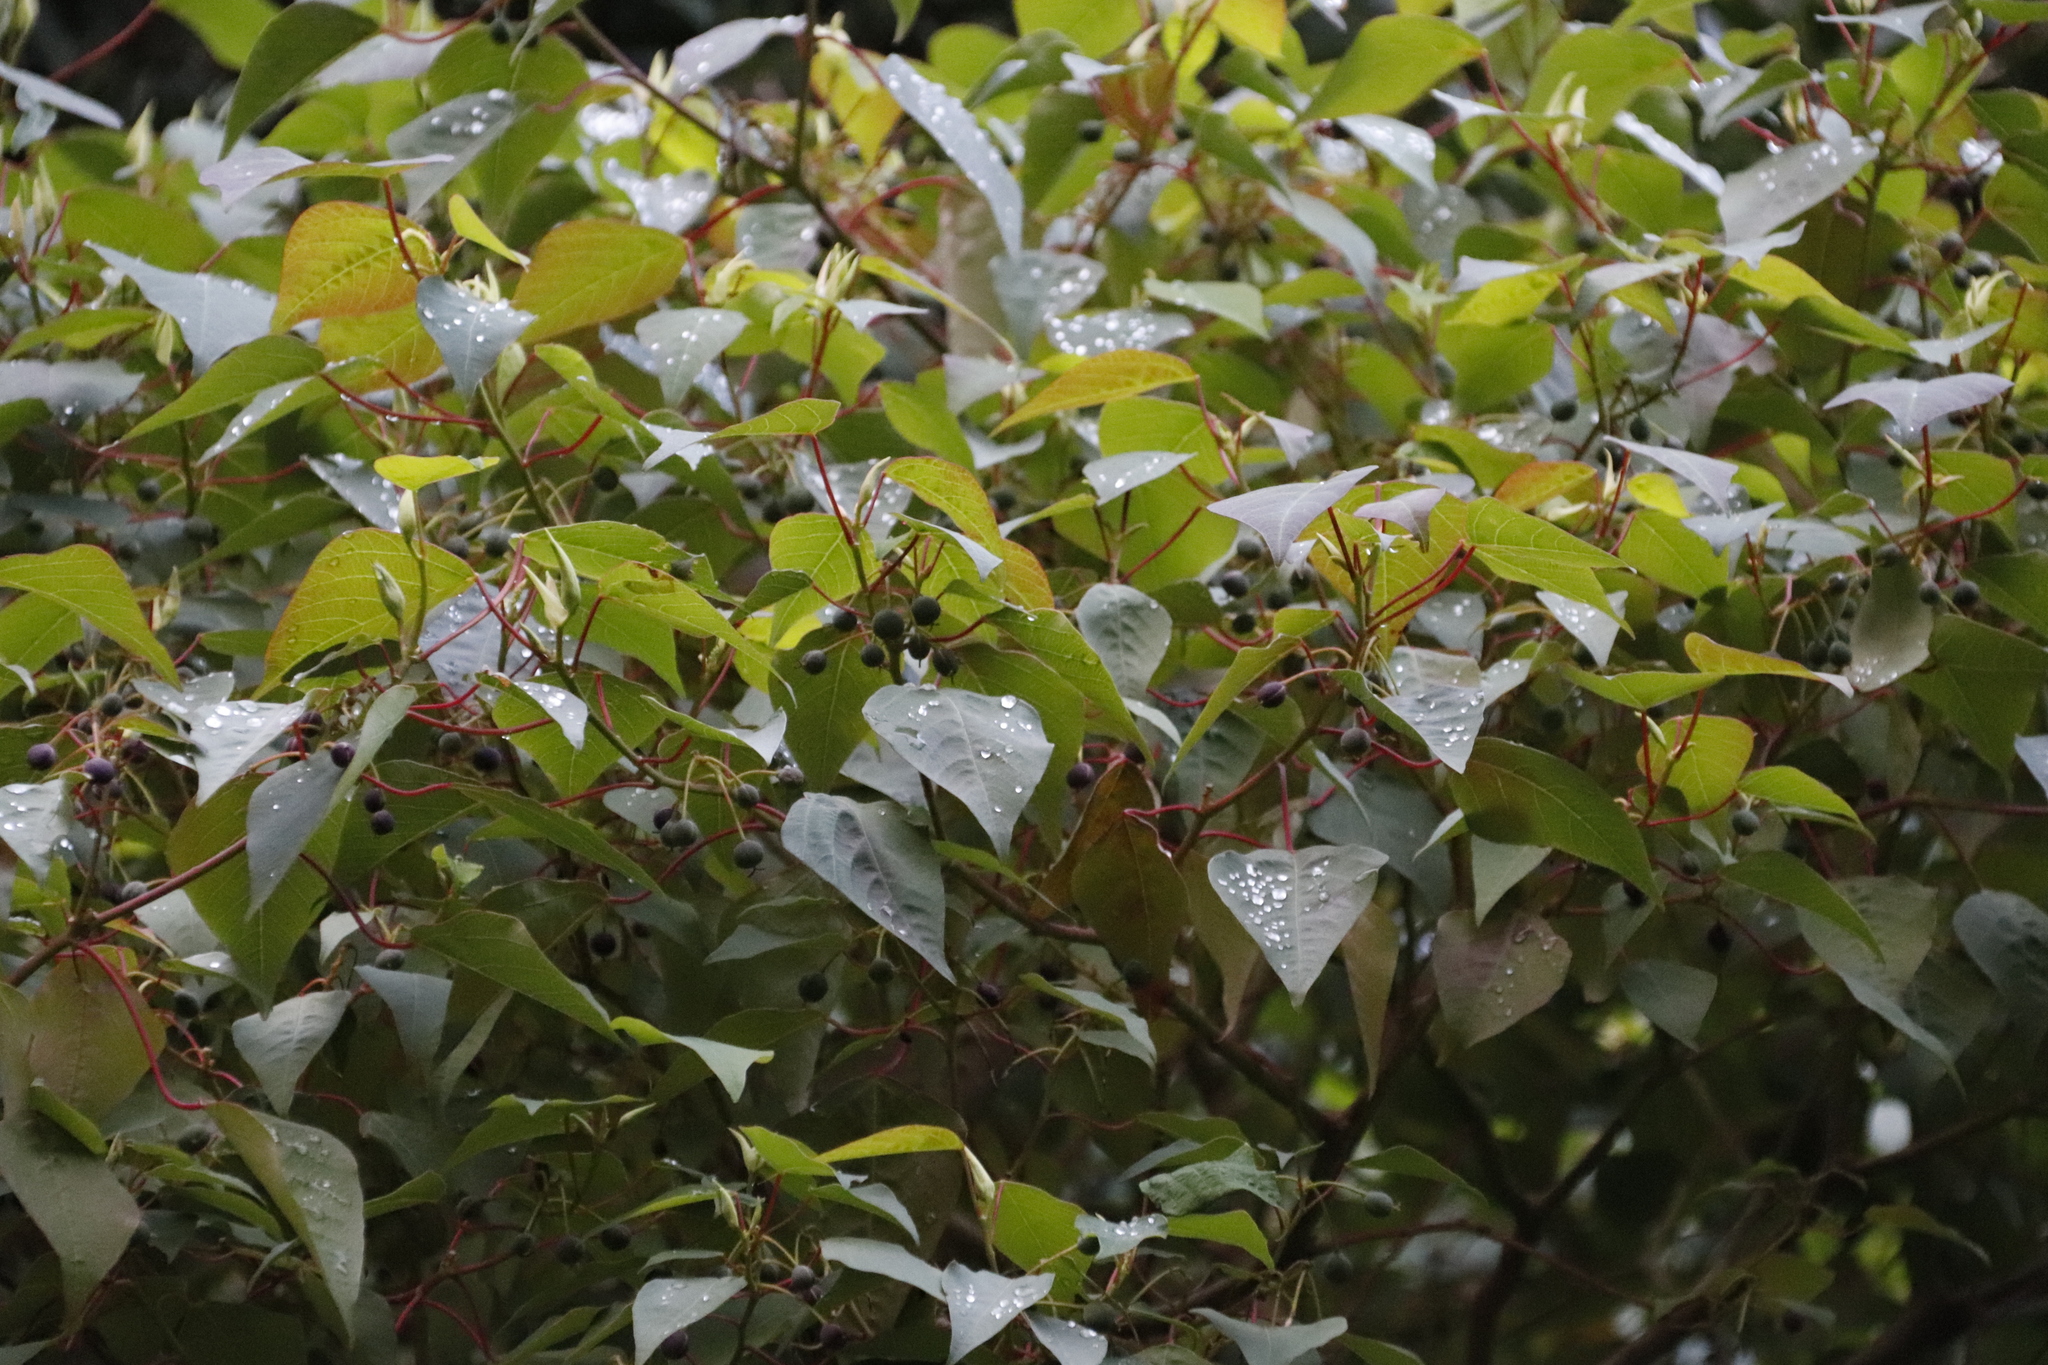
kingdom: Plantae
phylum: Tracheophyta
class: Magnoliopsida
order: Malpighiales
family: Euphorbiaceae
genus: Homalanthus
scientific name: Homalanthus populifolius
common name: Queensland poplar
